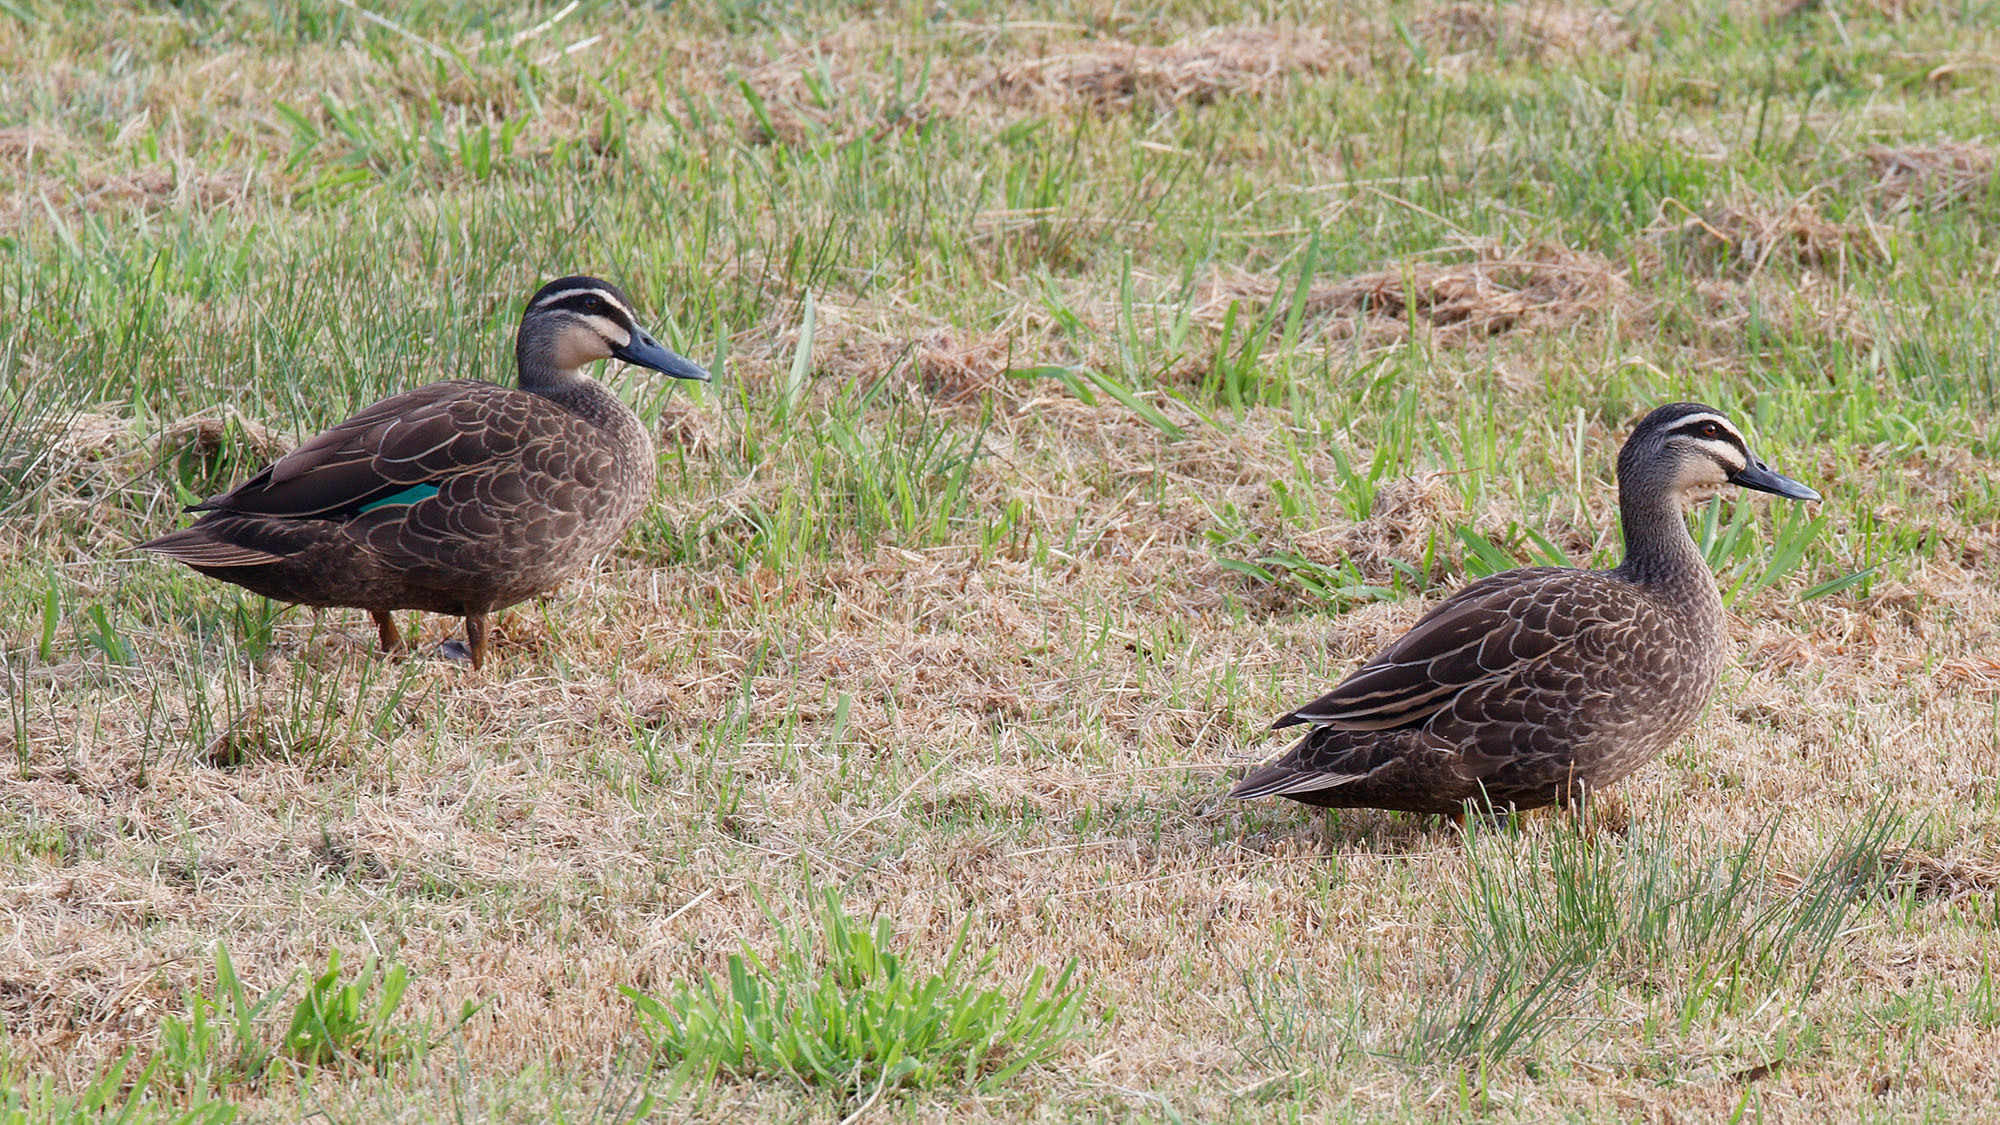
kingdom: Animalia
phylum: Chordata
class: Aves
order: Anseriformes
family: Anatidae
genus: Anas
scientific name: Anas superciliosa
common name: Pacific black duck
